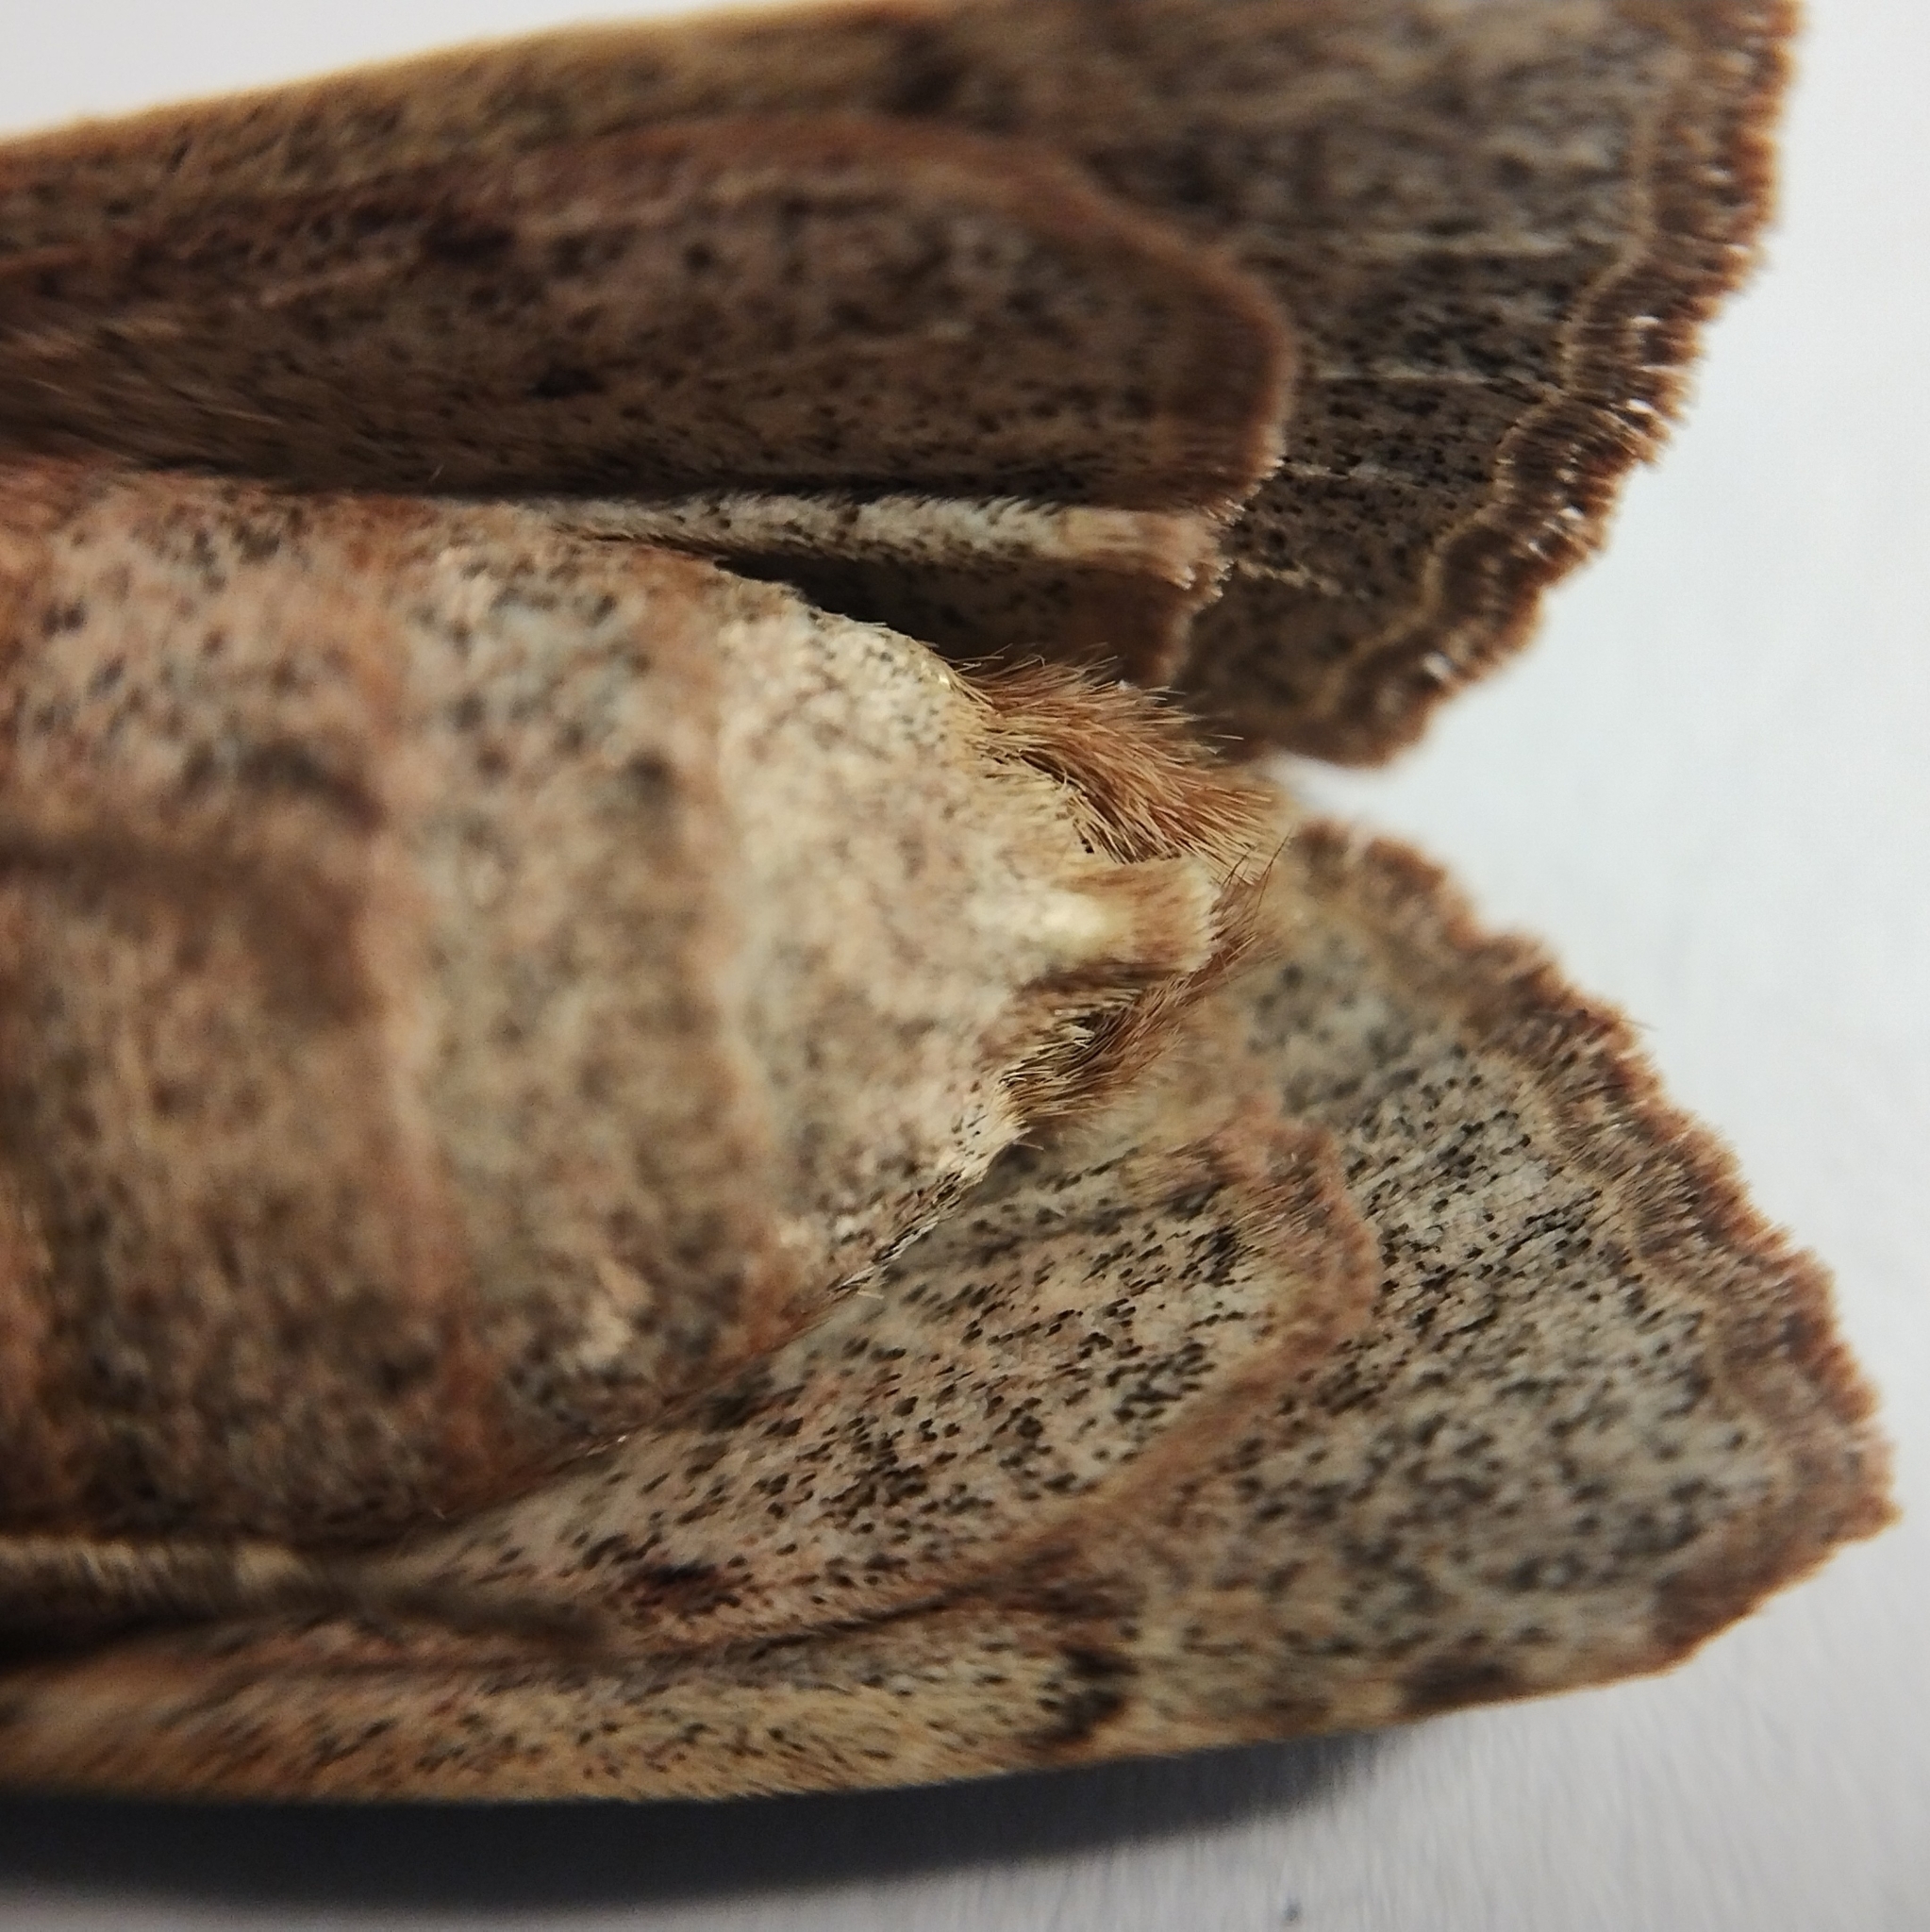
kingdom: Animalia
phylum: Arthropoda
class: Insecta
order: Lepidoptera
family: Noctuidae
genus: Orthosia
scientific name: Orthosia incerta
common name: Clouded drab
